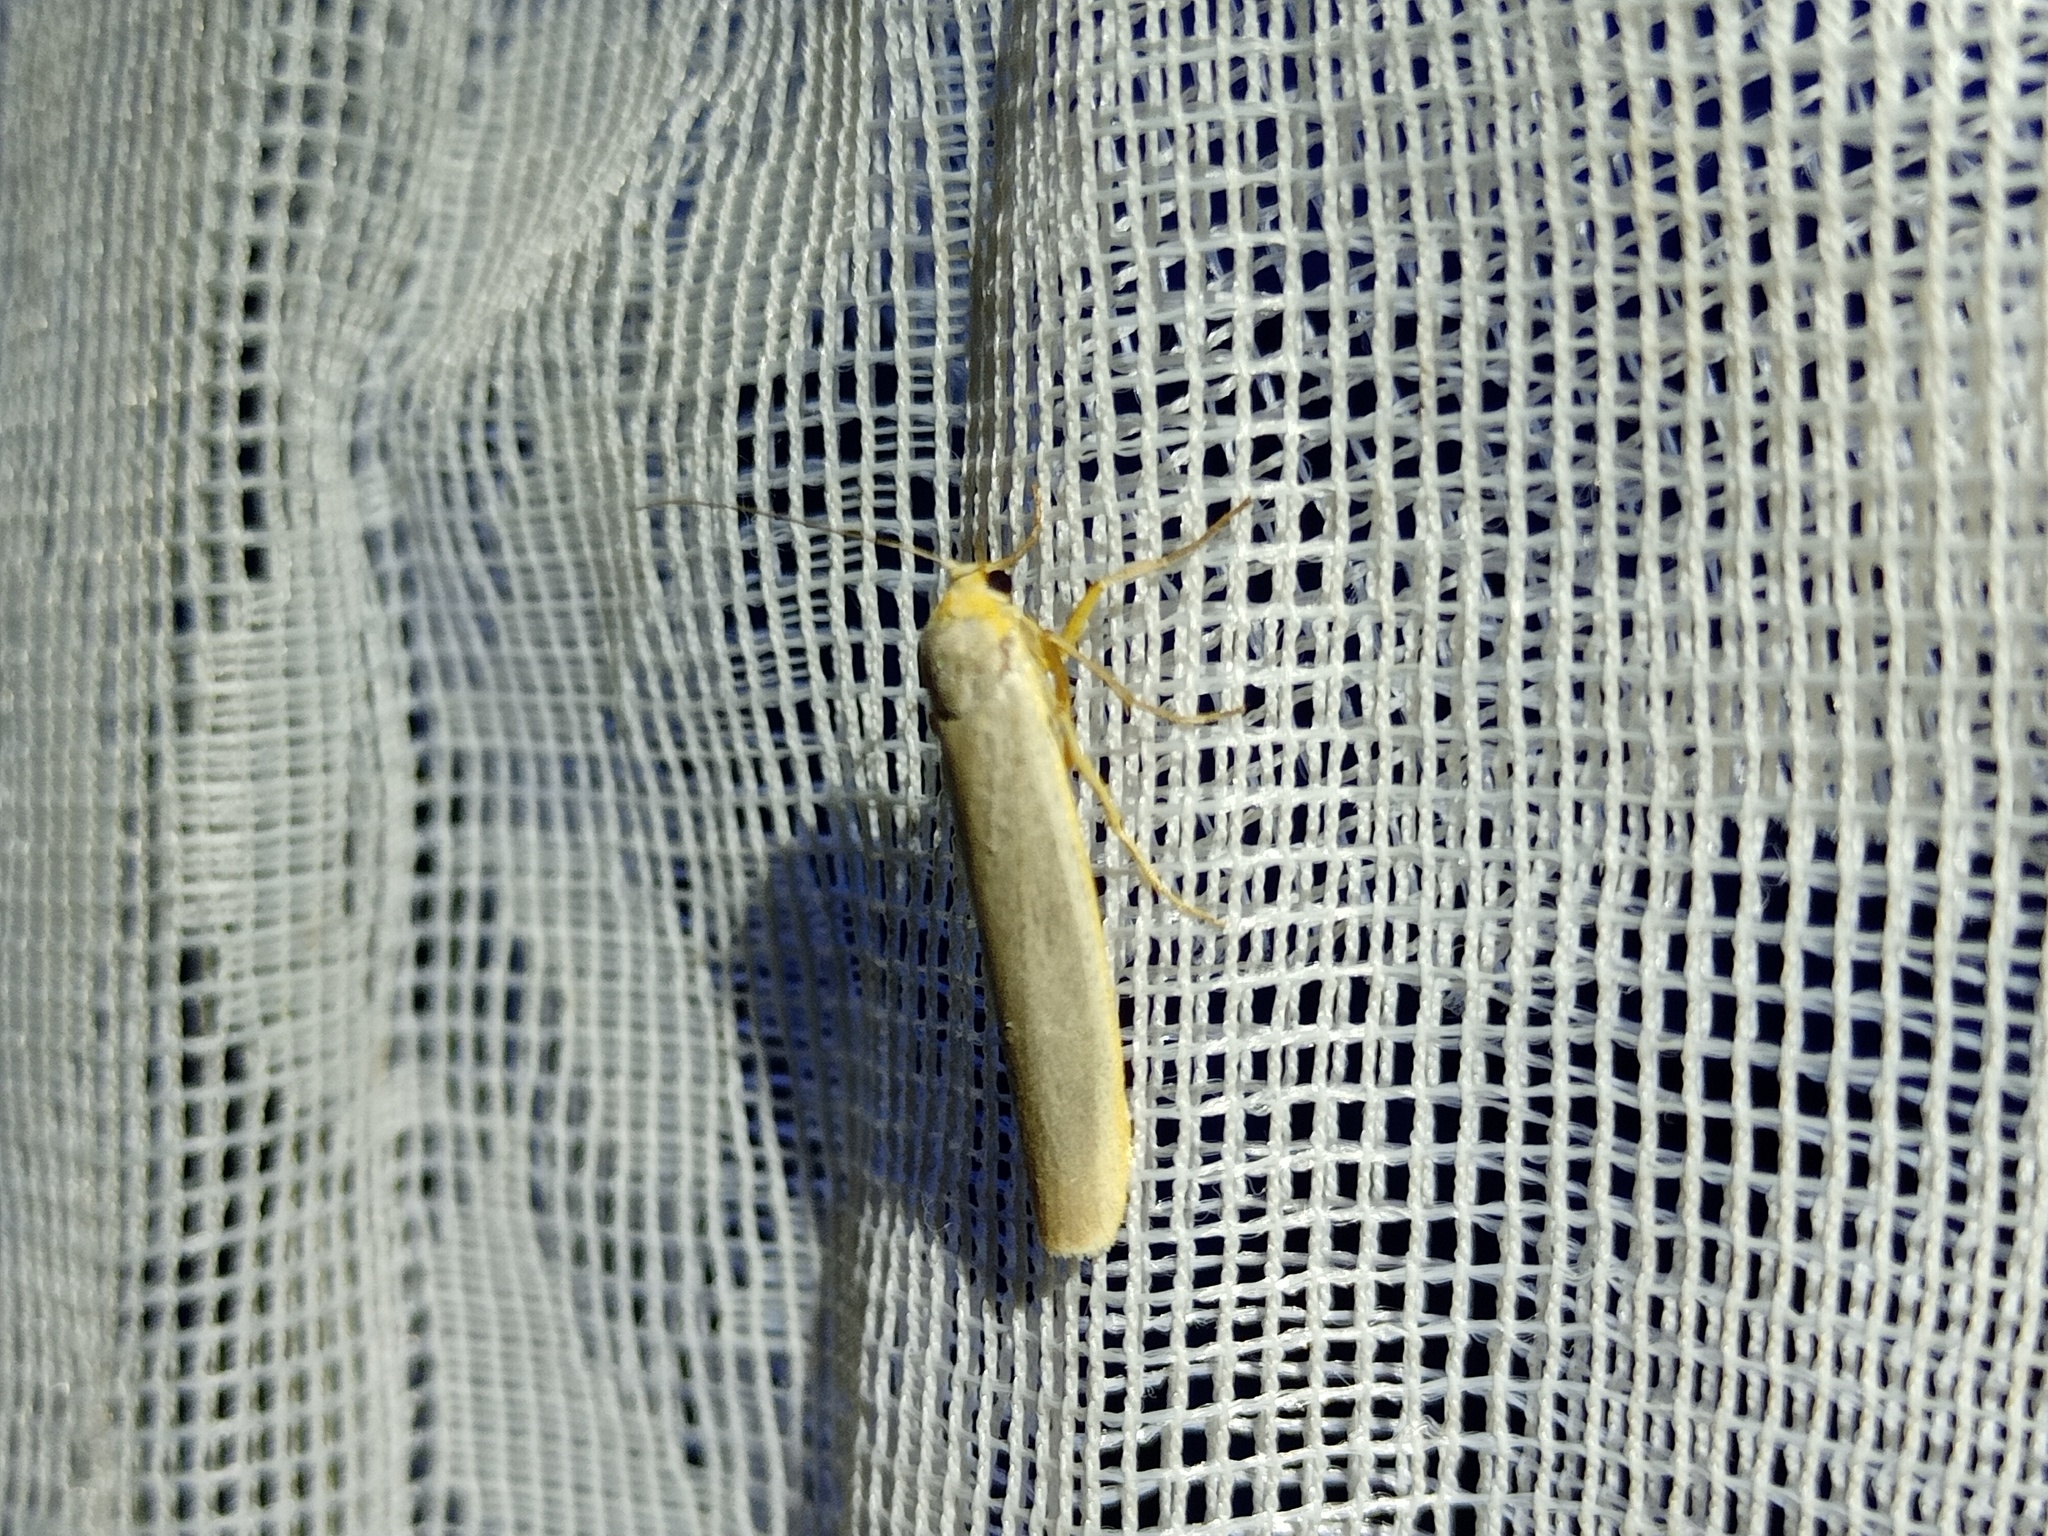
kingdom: Animalia
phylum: Arthropoda
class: Insecta
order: Lepidoptera
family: Erebidae
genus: Manulea
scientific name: Manulea complana
